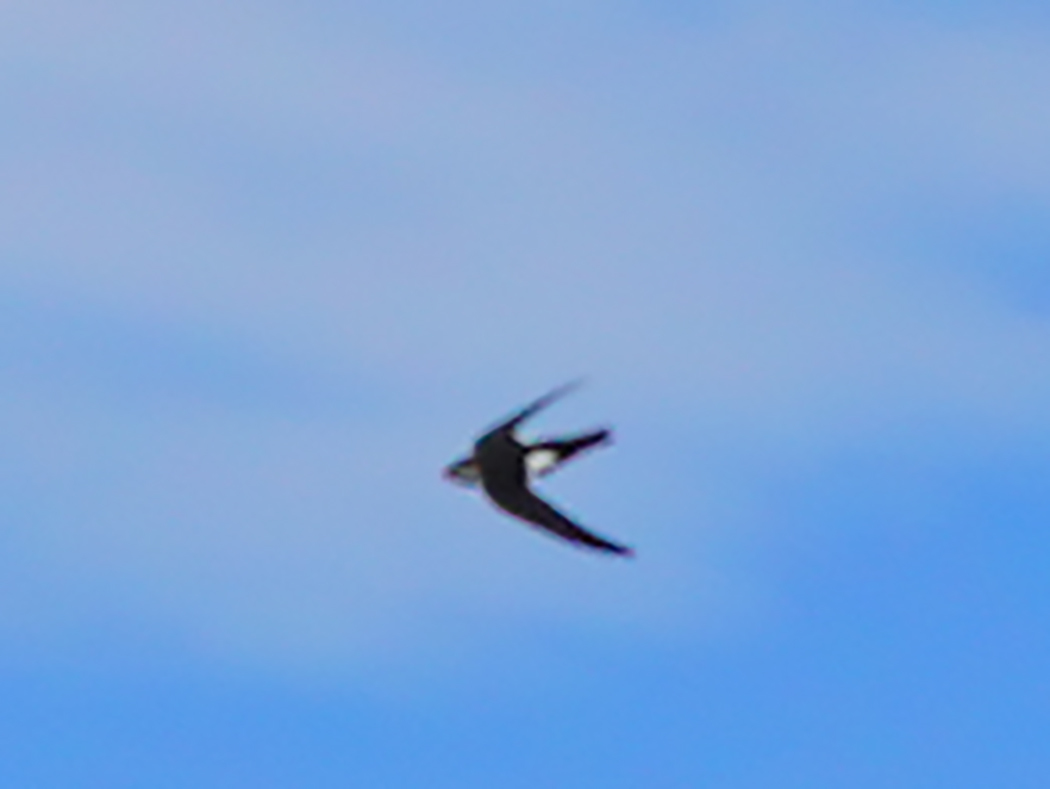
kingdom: Animalia
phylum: Chordata
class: Aves
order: Apodiformes
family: Apodidae
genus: Aeronautes
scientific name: Aeronautes saxatalis
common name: White-throated swift
